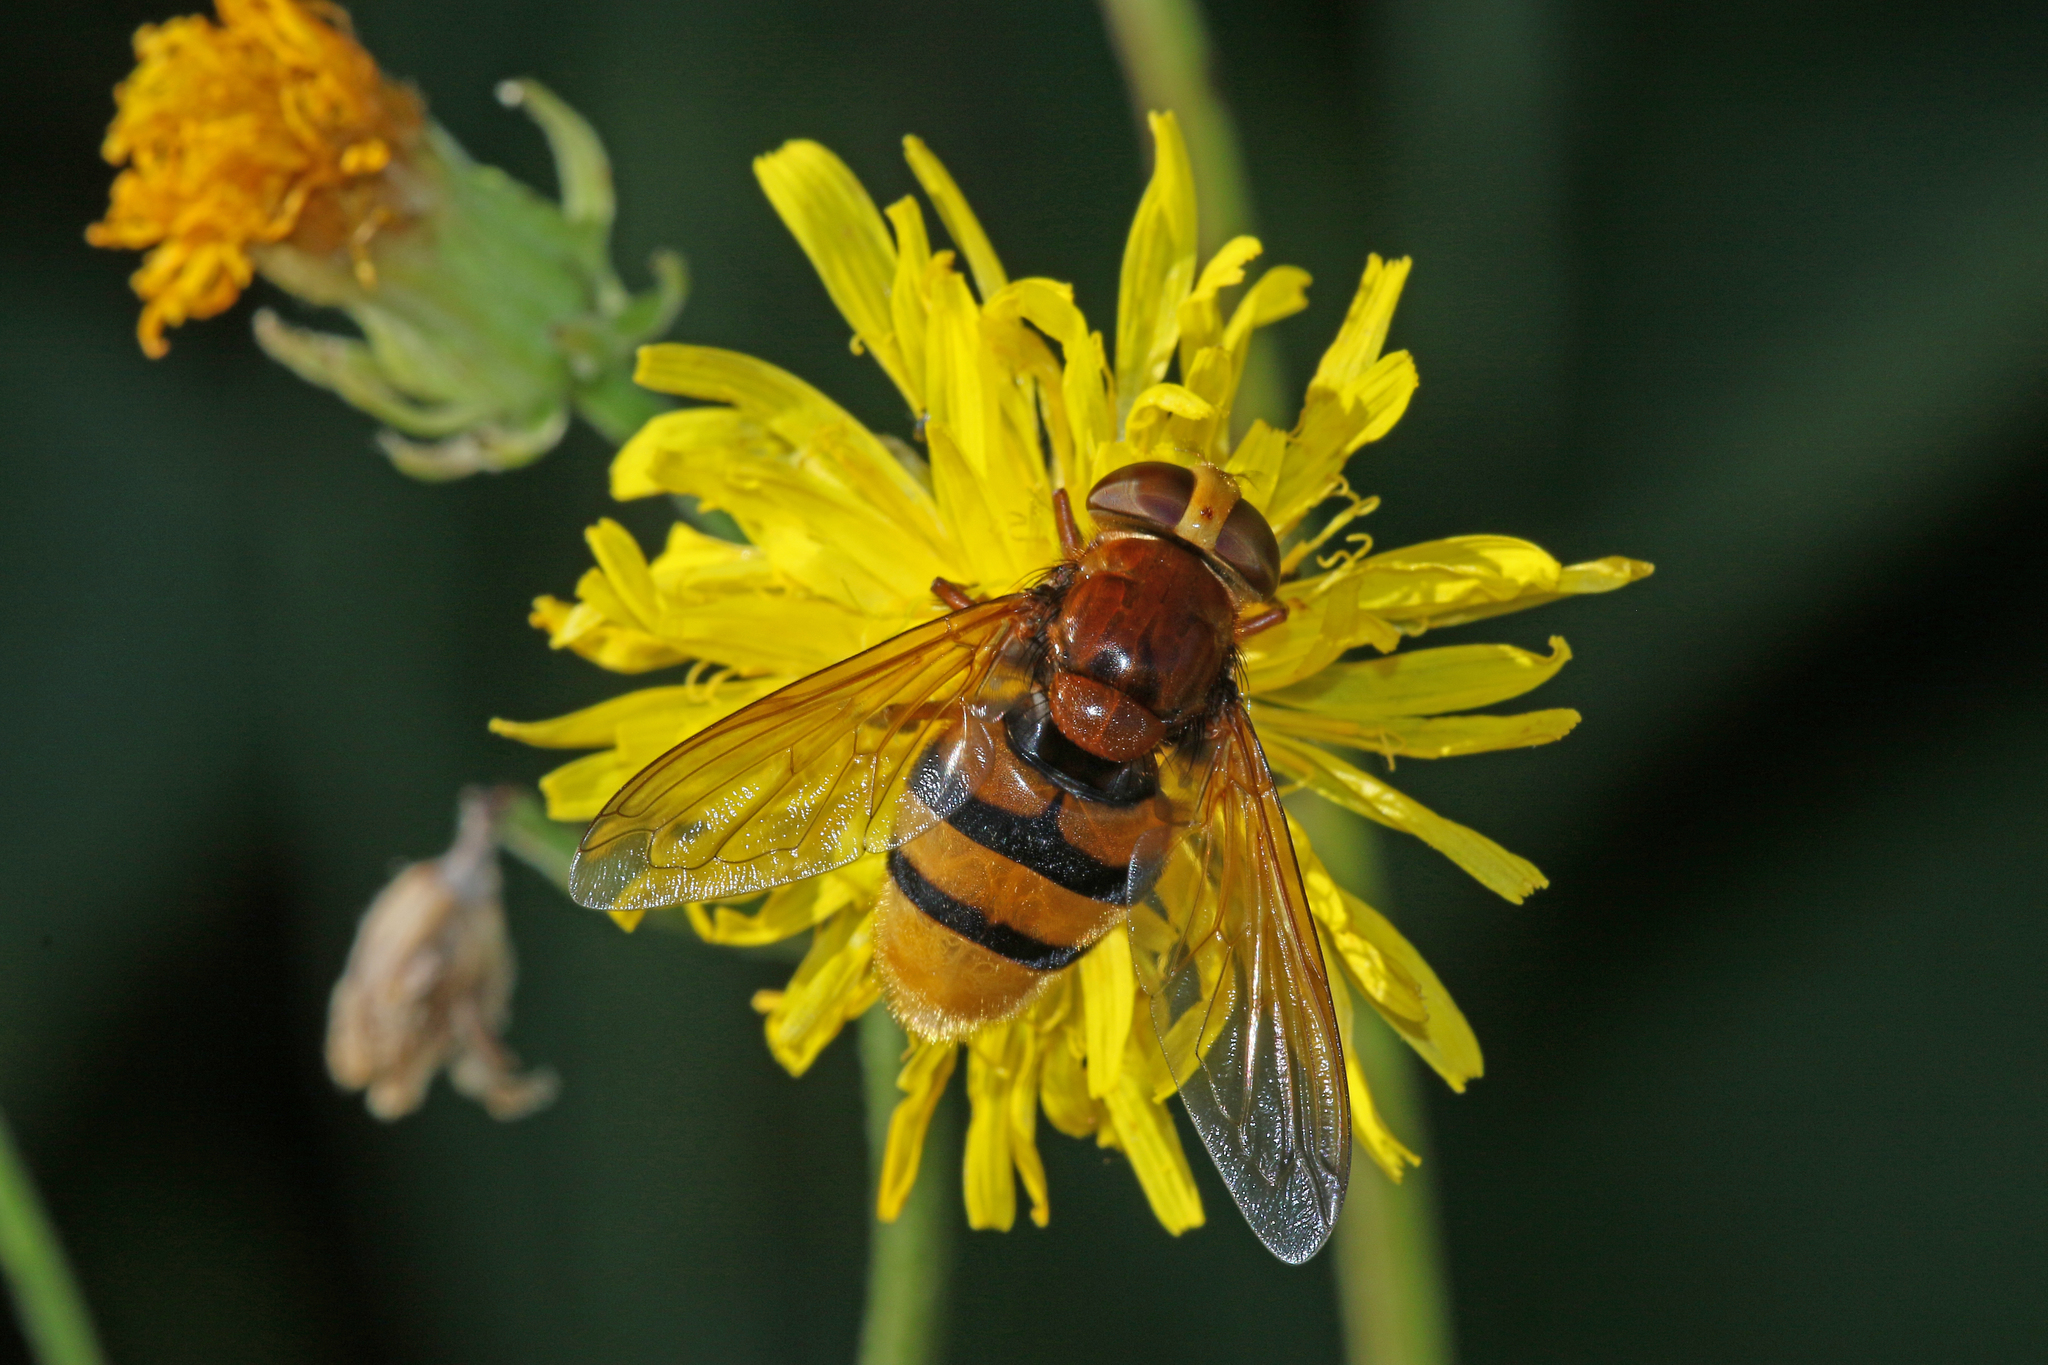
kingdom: Animalia
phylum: Arthropoda
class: Insecta
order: Diptera
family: Syrphidae
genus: Volucella
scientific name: Volucella zonaria
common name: Hornet hoverfly
